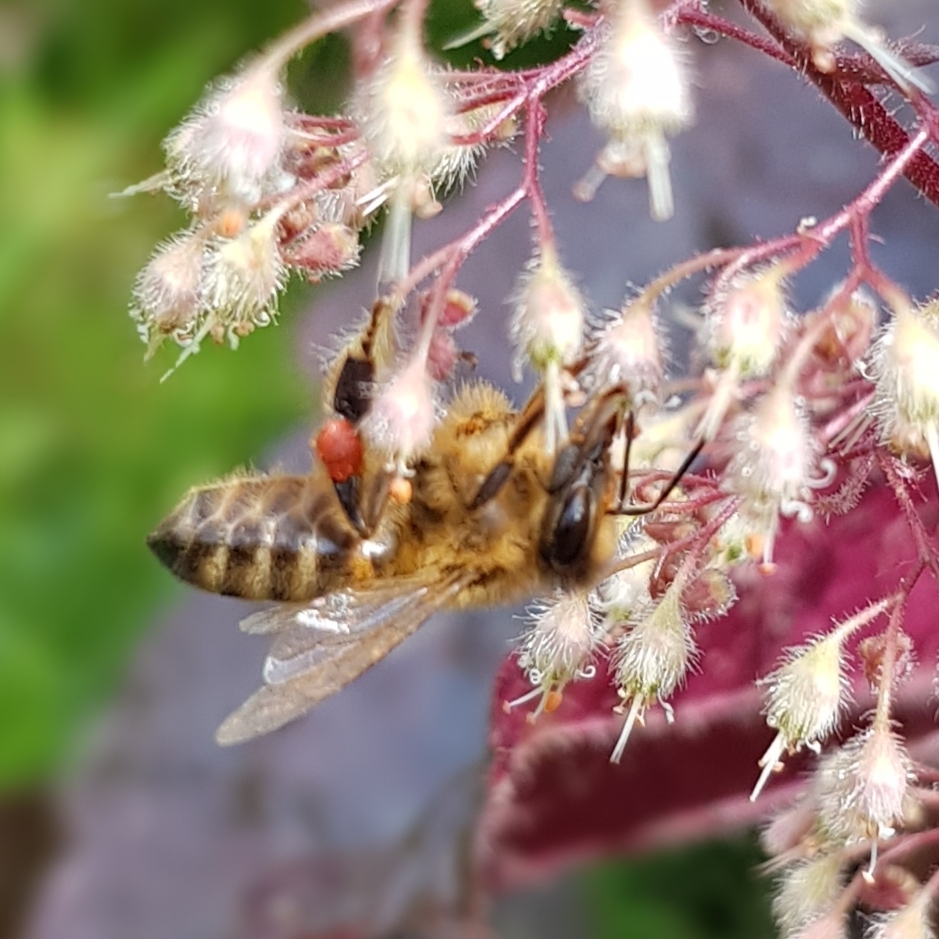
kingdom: Animalia
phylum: Arthropoda
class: Insecta
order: Hymenoptera
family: Apidae
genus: Apis
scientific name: Apis mellifera
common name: Honey bee
